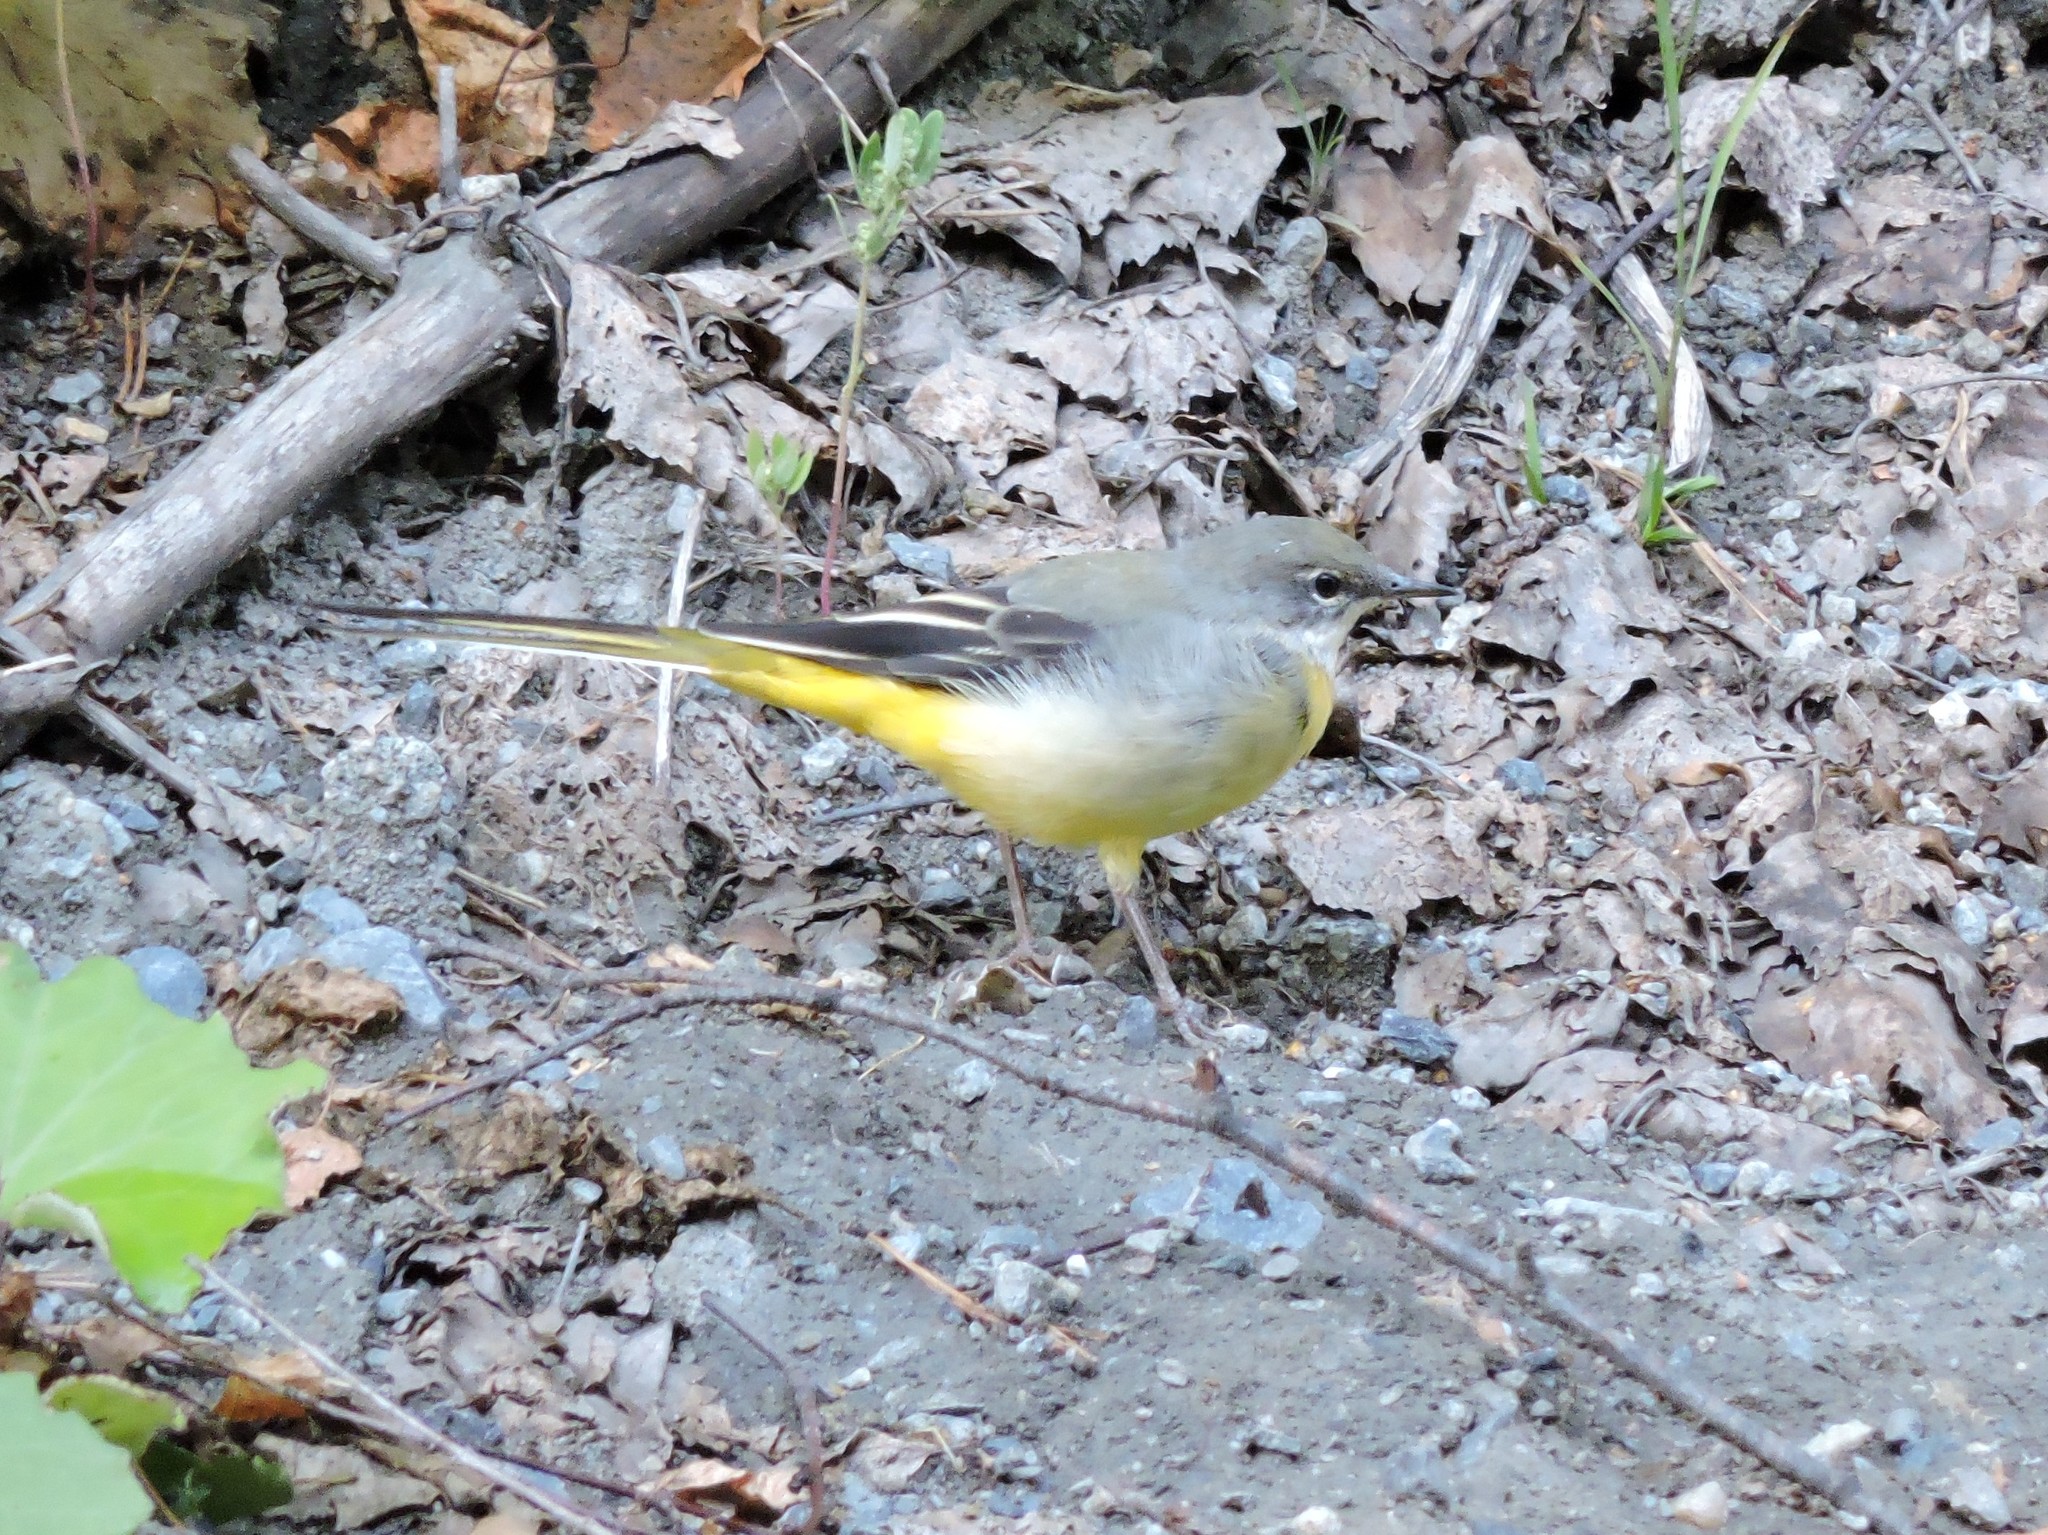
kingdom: Animalia
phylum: Chordata
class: Aves
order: Passeriformes
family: Motacillidae
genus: Motacilla
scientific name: Motacilla cinerea
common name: Grey wagtail
